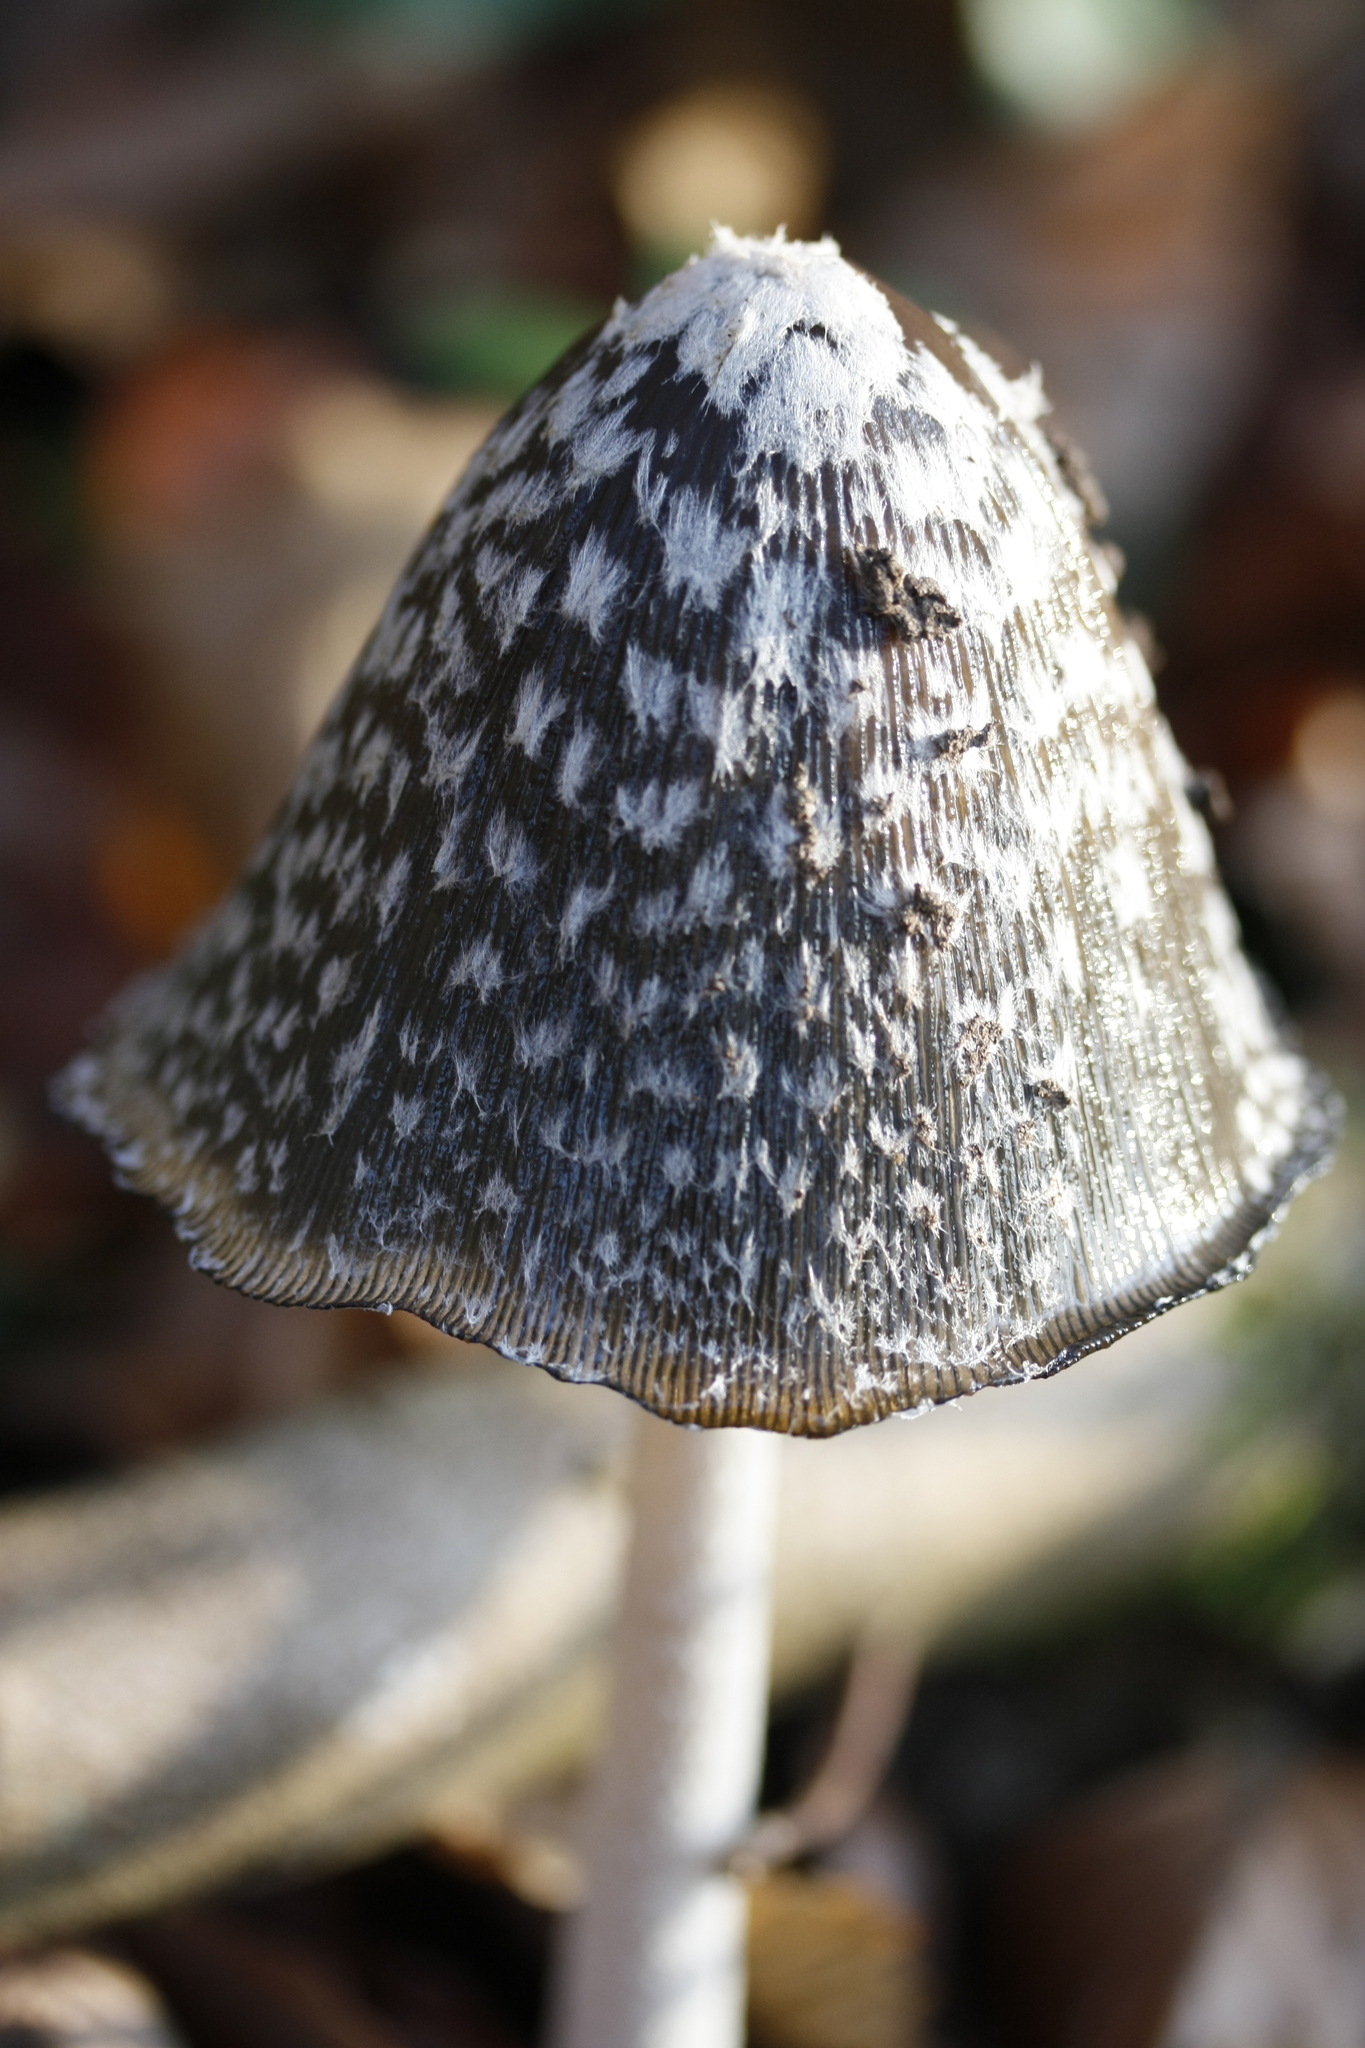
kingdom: Fungi
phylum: Basidiomycota
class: Agaricomycetes
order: Agaricales
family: Psathyrellaceae
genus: Coprinopsis
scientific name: Coprinopsis picacea
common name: Magpie inkcap
